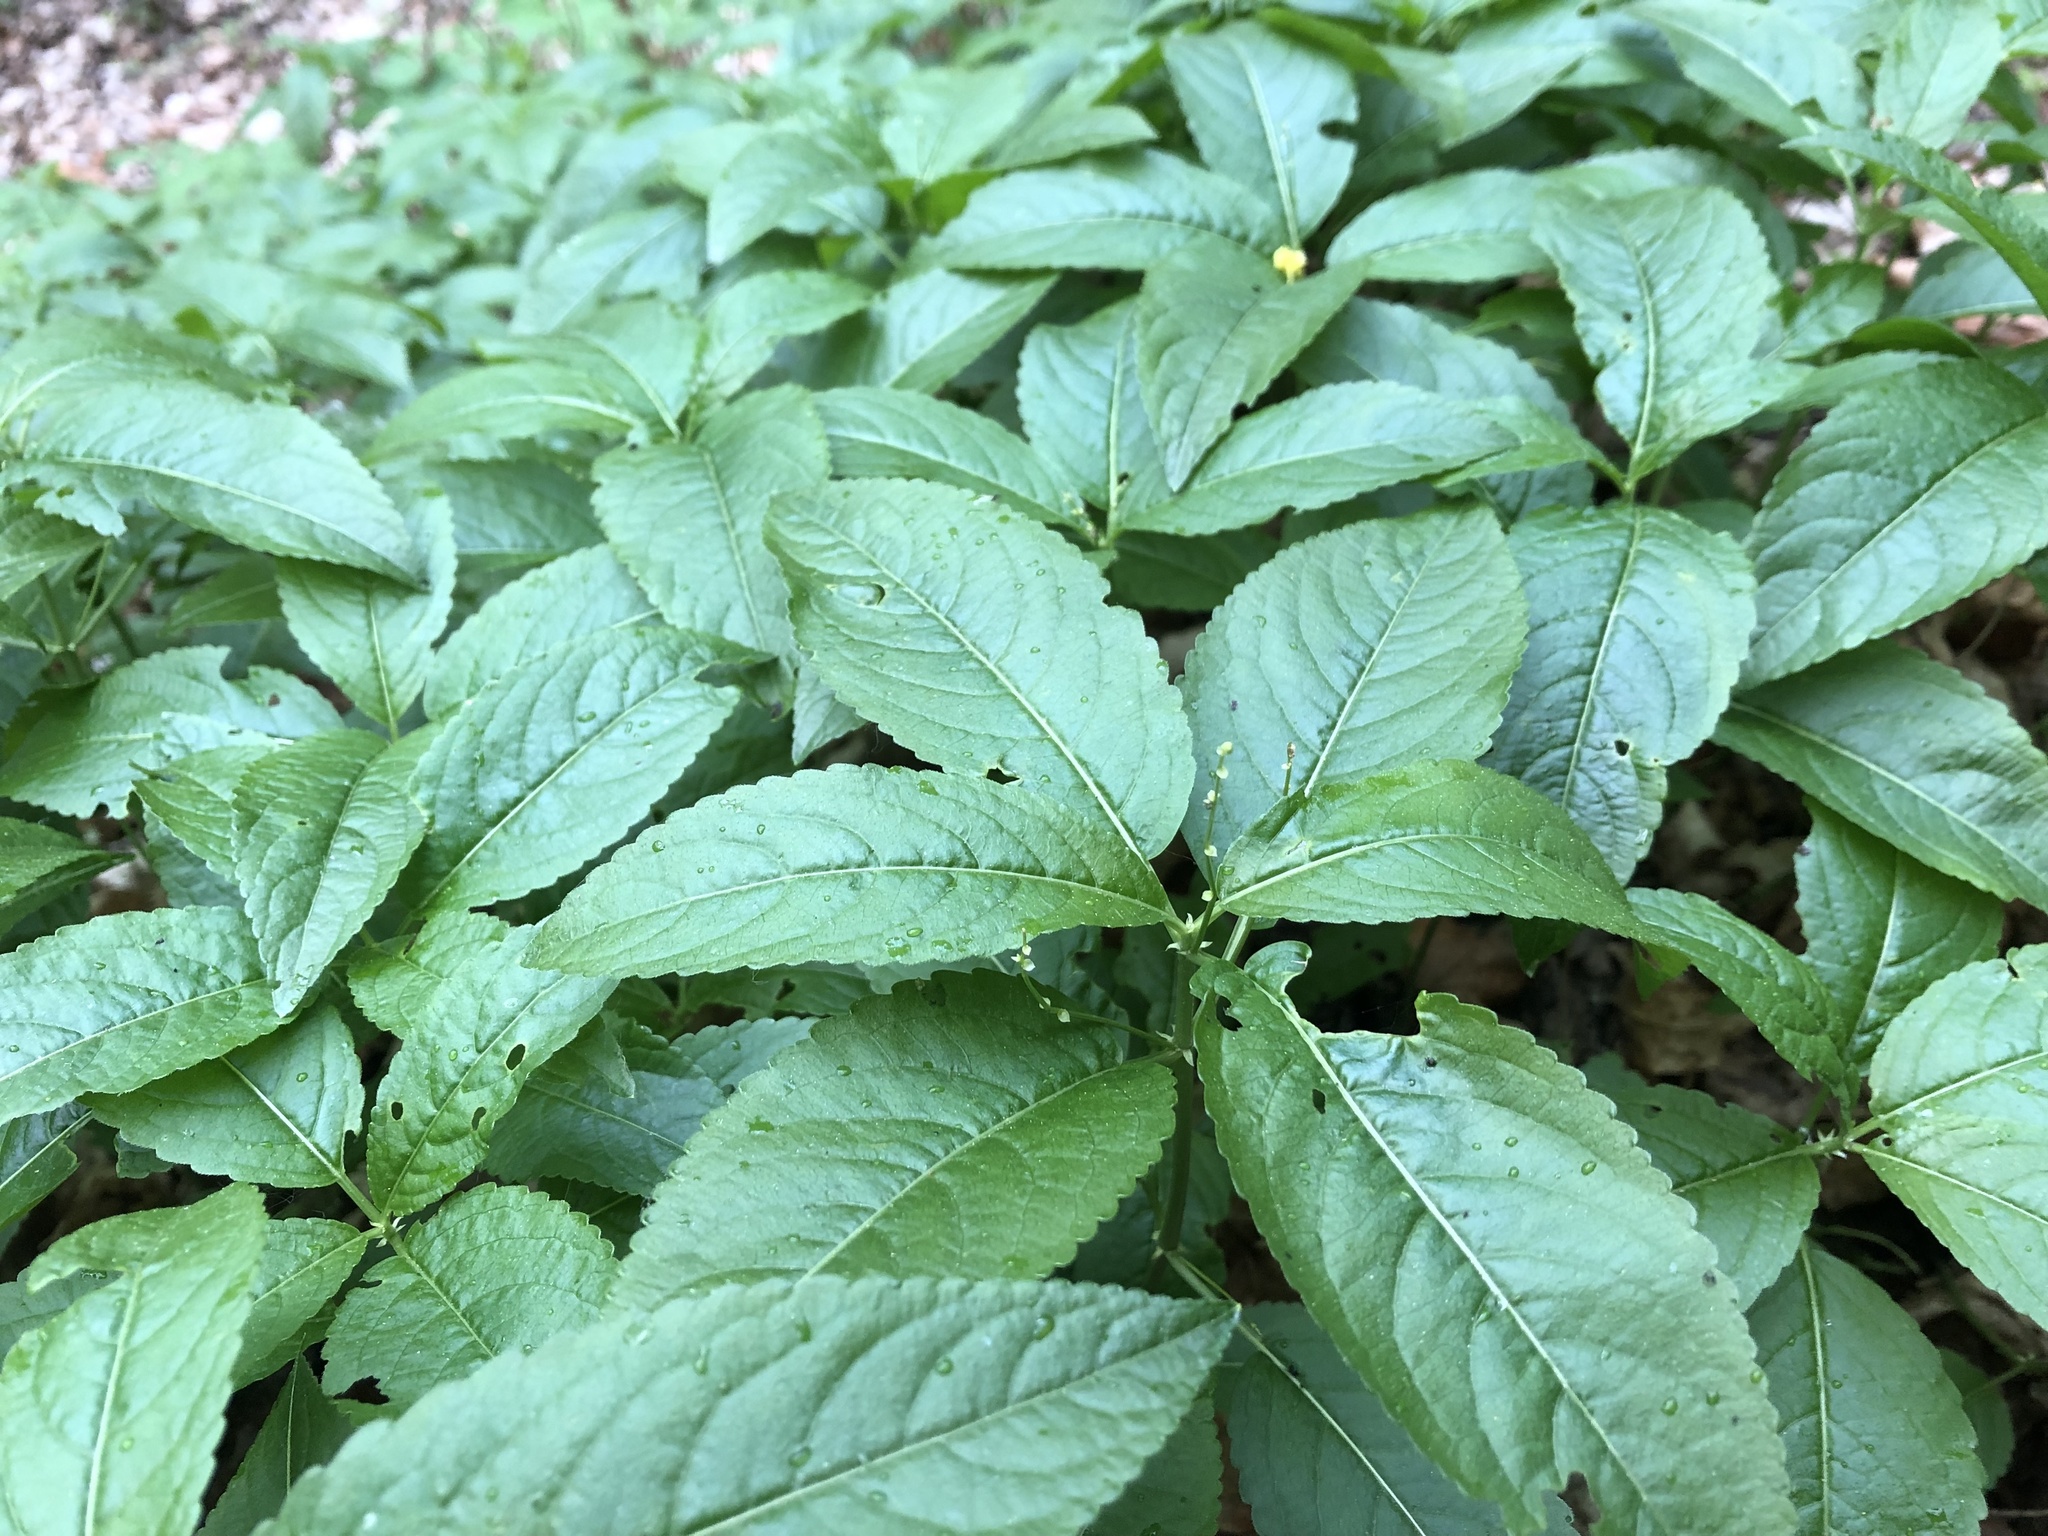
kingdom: Plantae
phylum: Tracheophyta
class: Magnoliopsida
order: Malpighiales
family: Euphorbiaceae
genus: Mercurialis
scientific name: Mercurialis perennis
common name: Dog mercury
